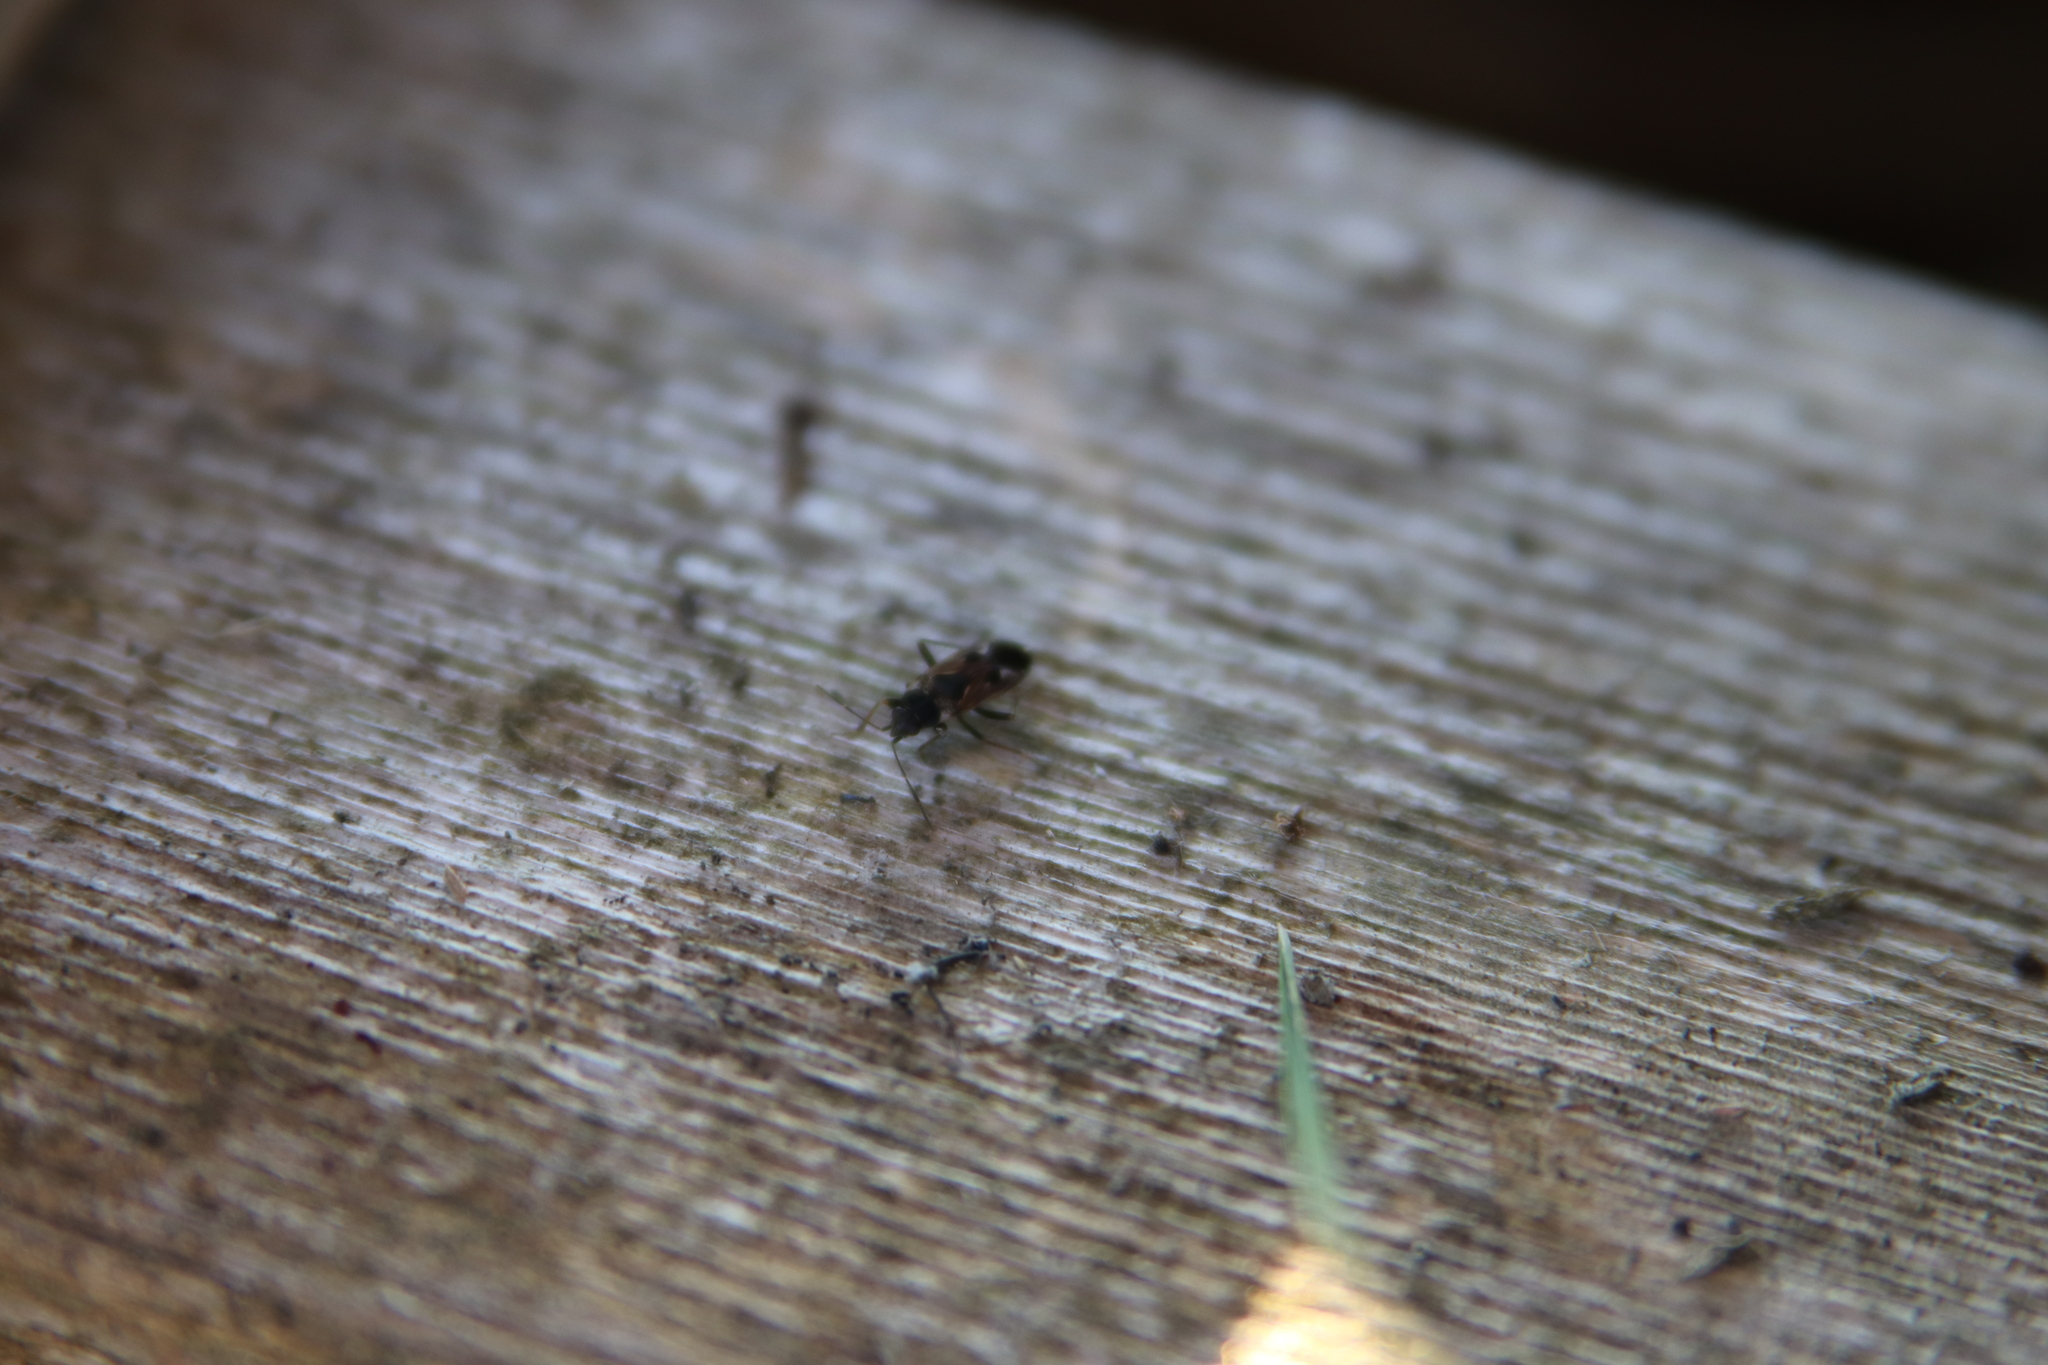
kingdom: Animalia
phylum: Arthropoda
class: Insecta
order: Hemiptera
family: Rhyparochromidae
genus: Rhyparochromus
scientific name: Rhyparochromus vulgaris
